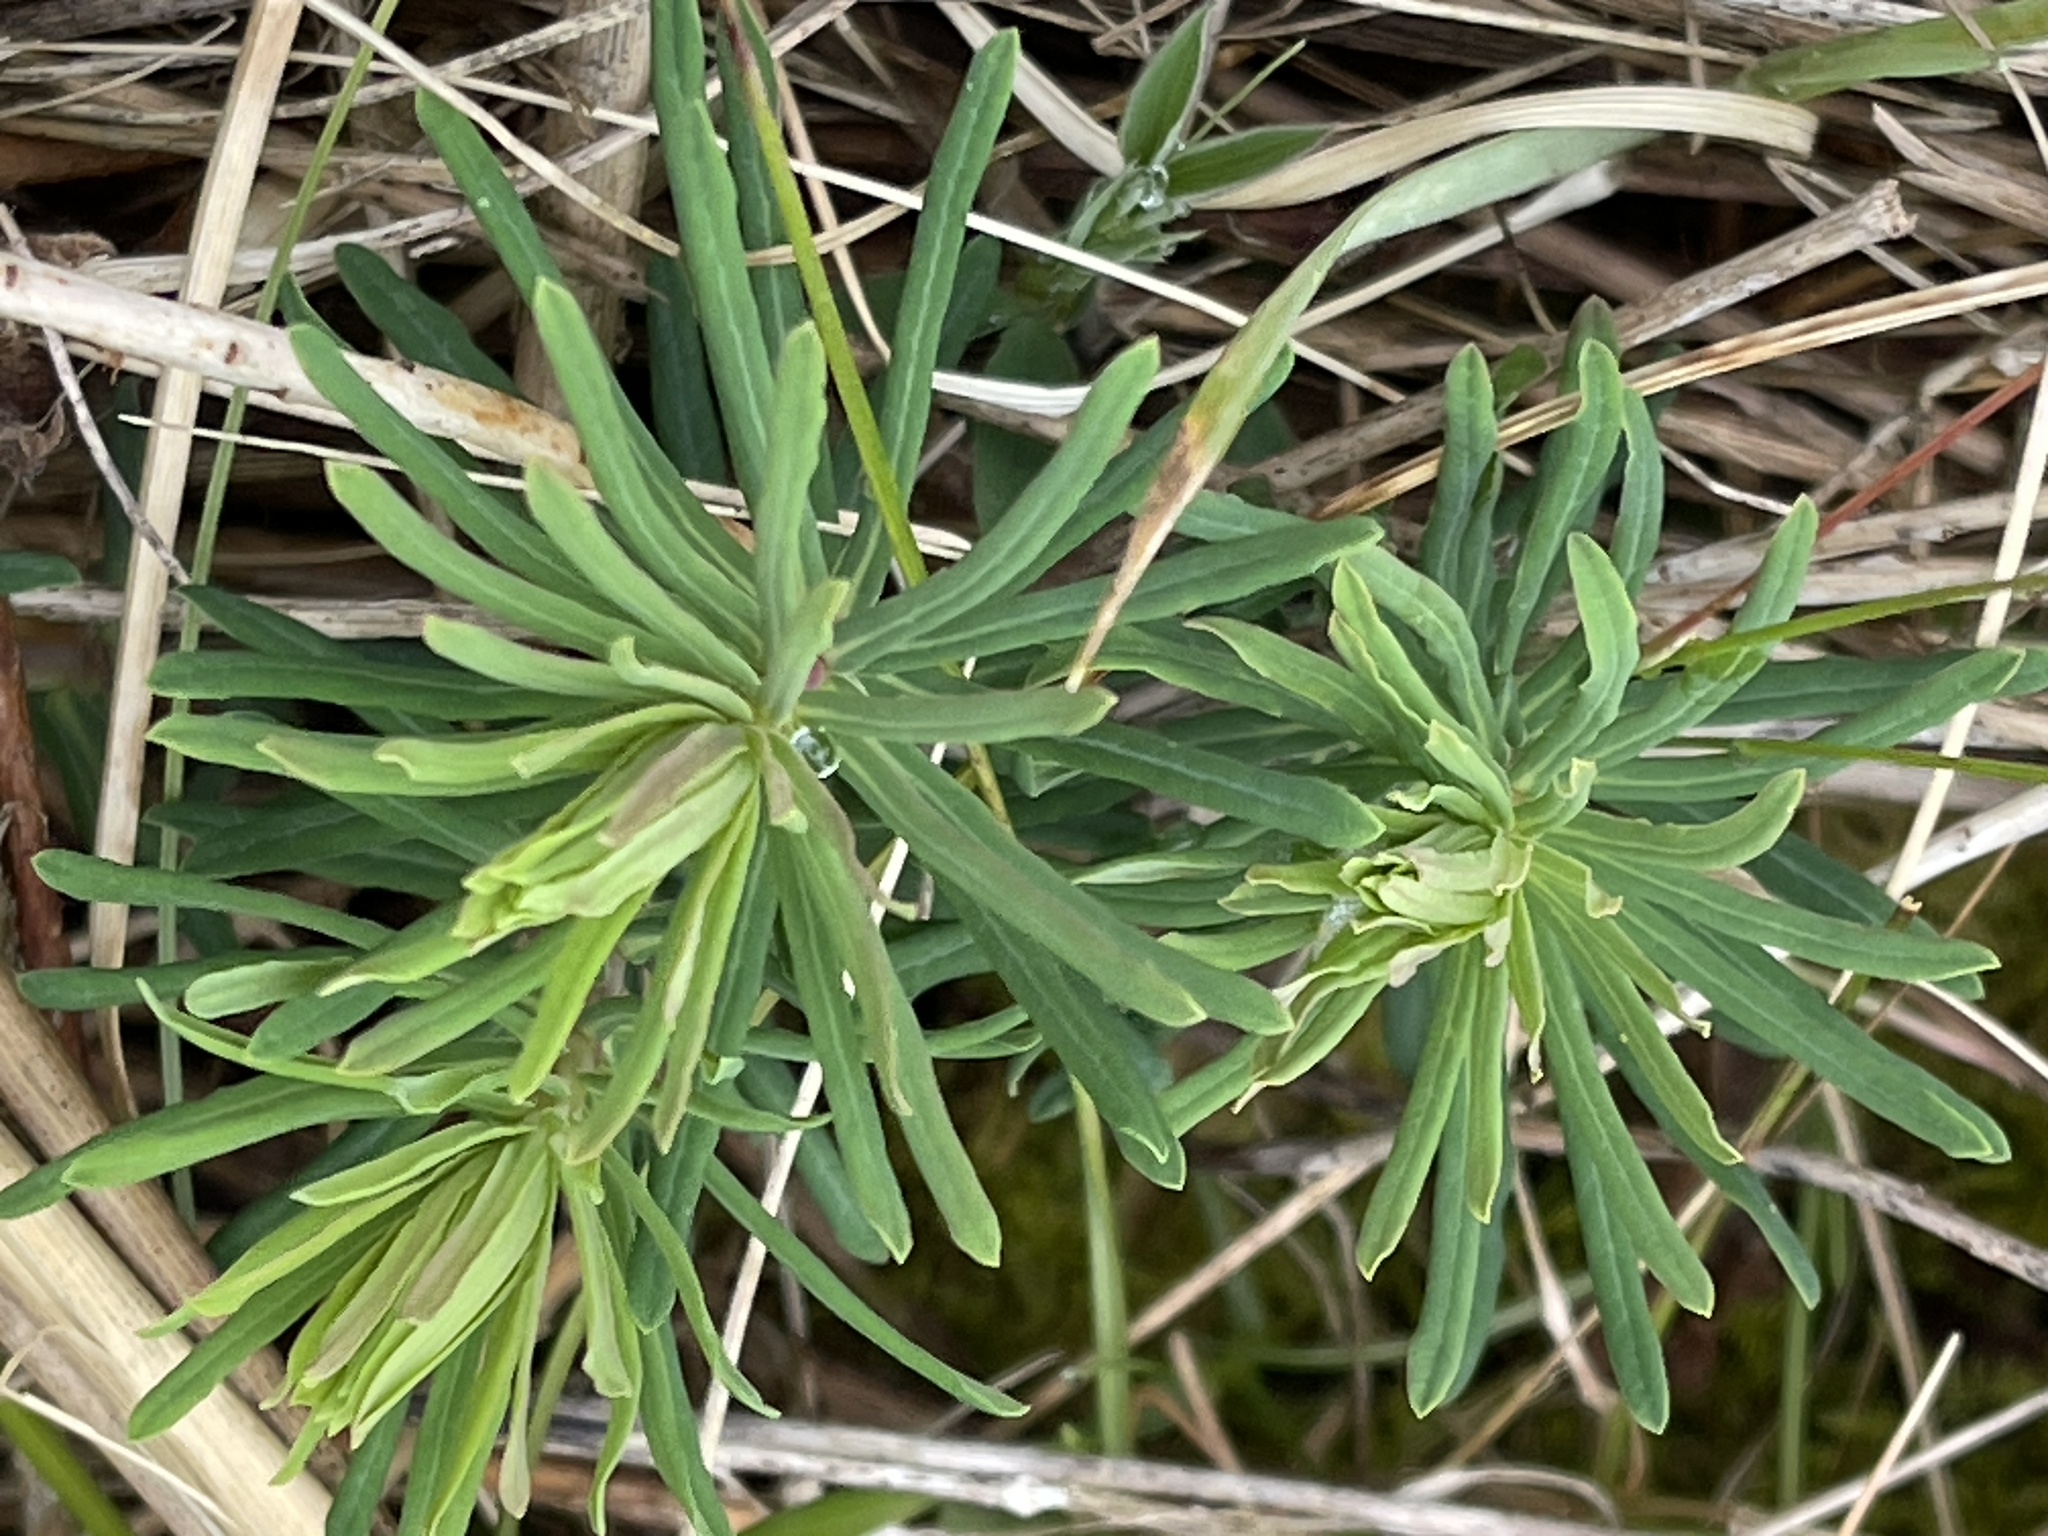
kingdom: Plantae
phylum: Tracheophyta
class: Magnoliopsida
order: Malpighiales
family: Euphorbiaceae
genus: Euphorbia
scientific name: Euphorbia cyparissias
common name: Cypress spurge
